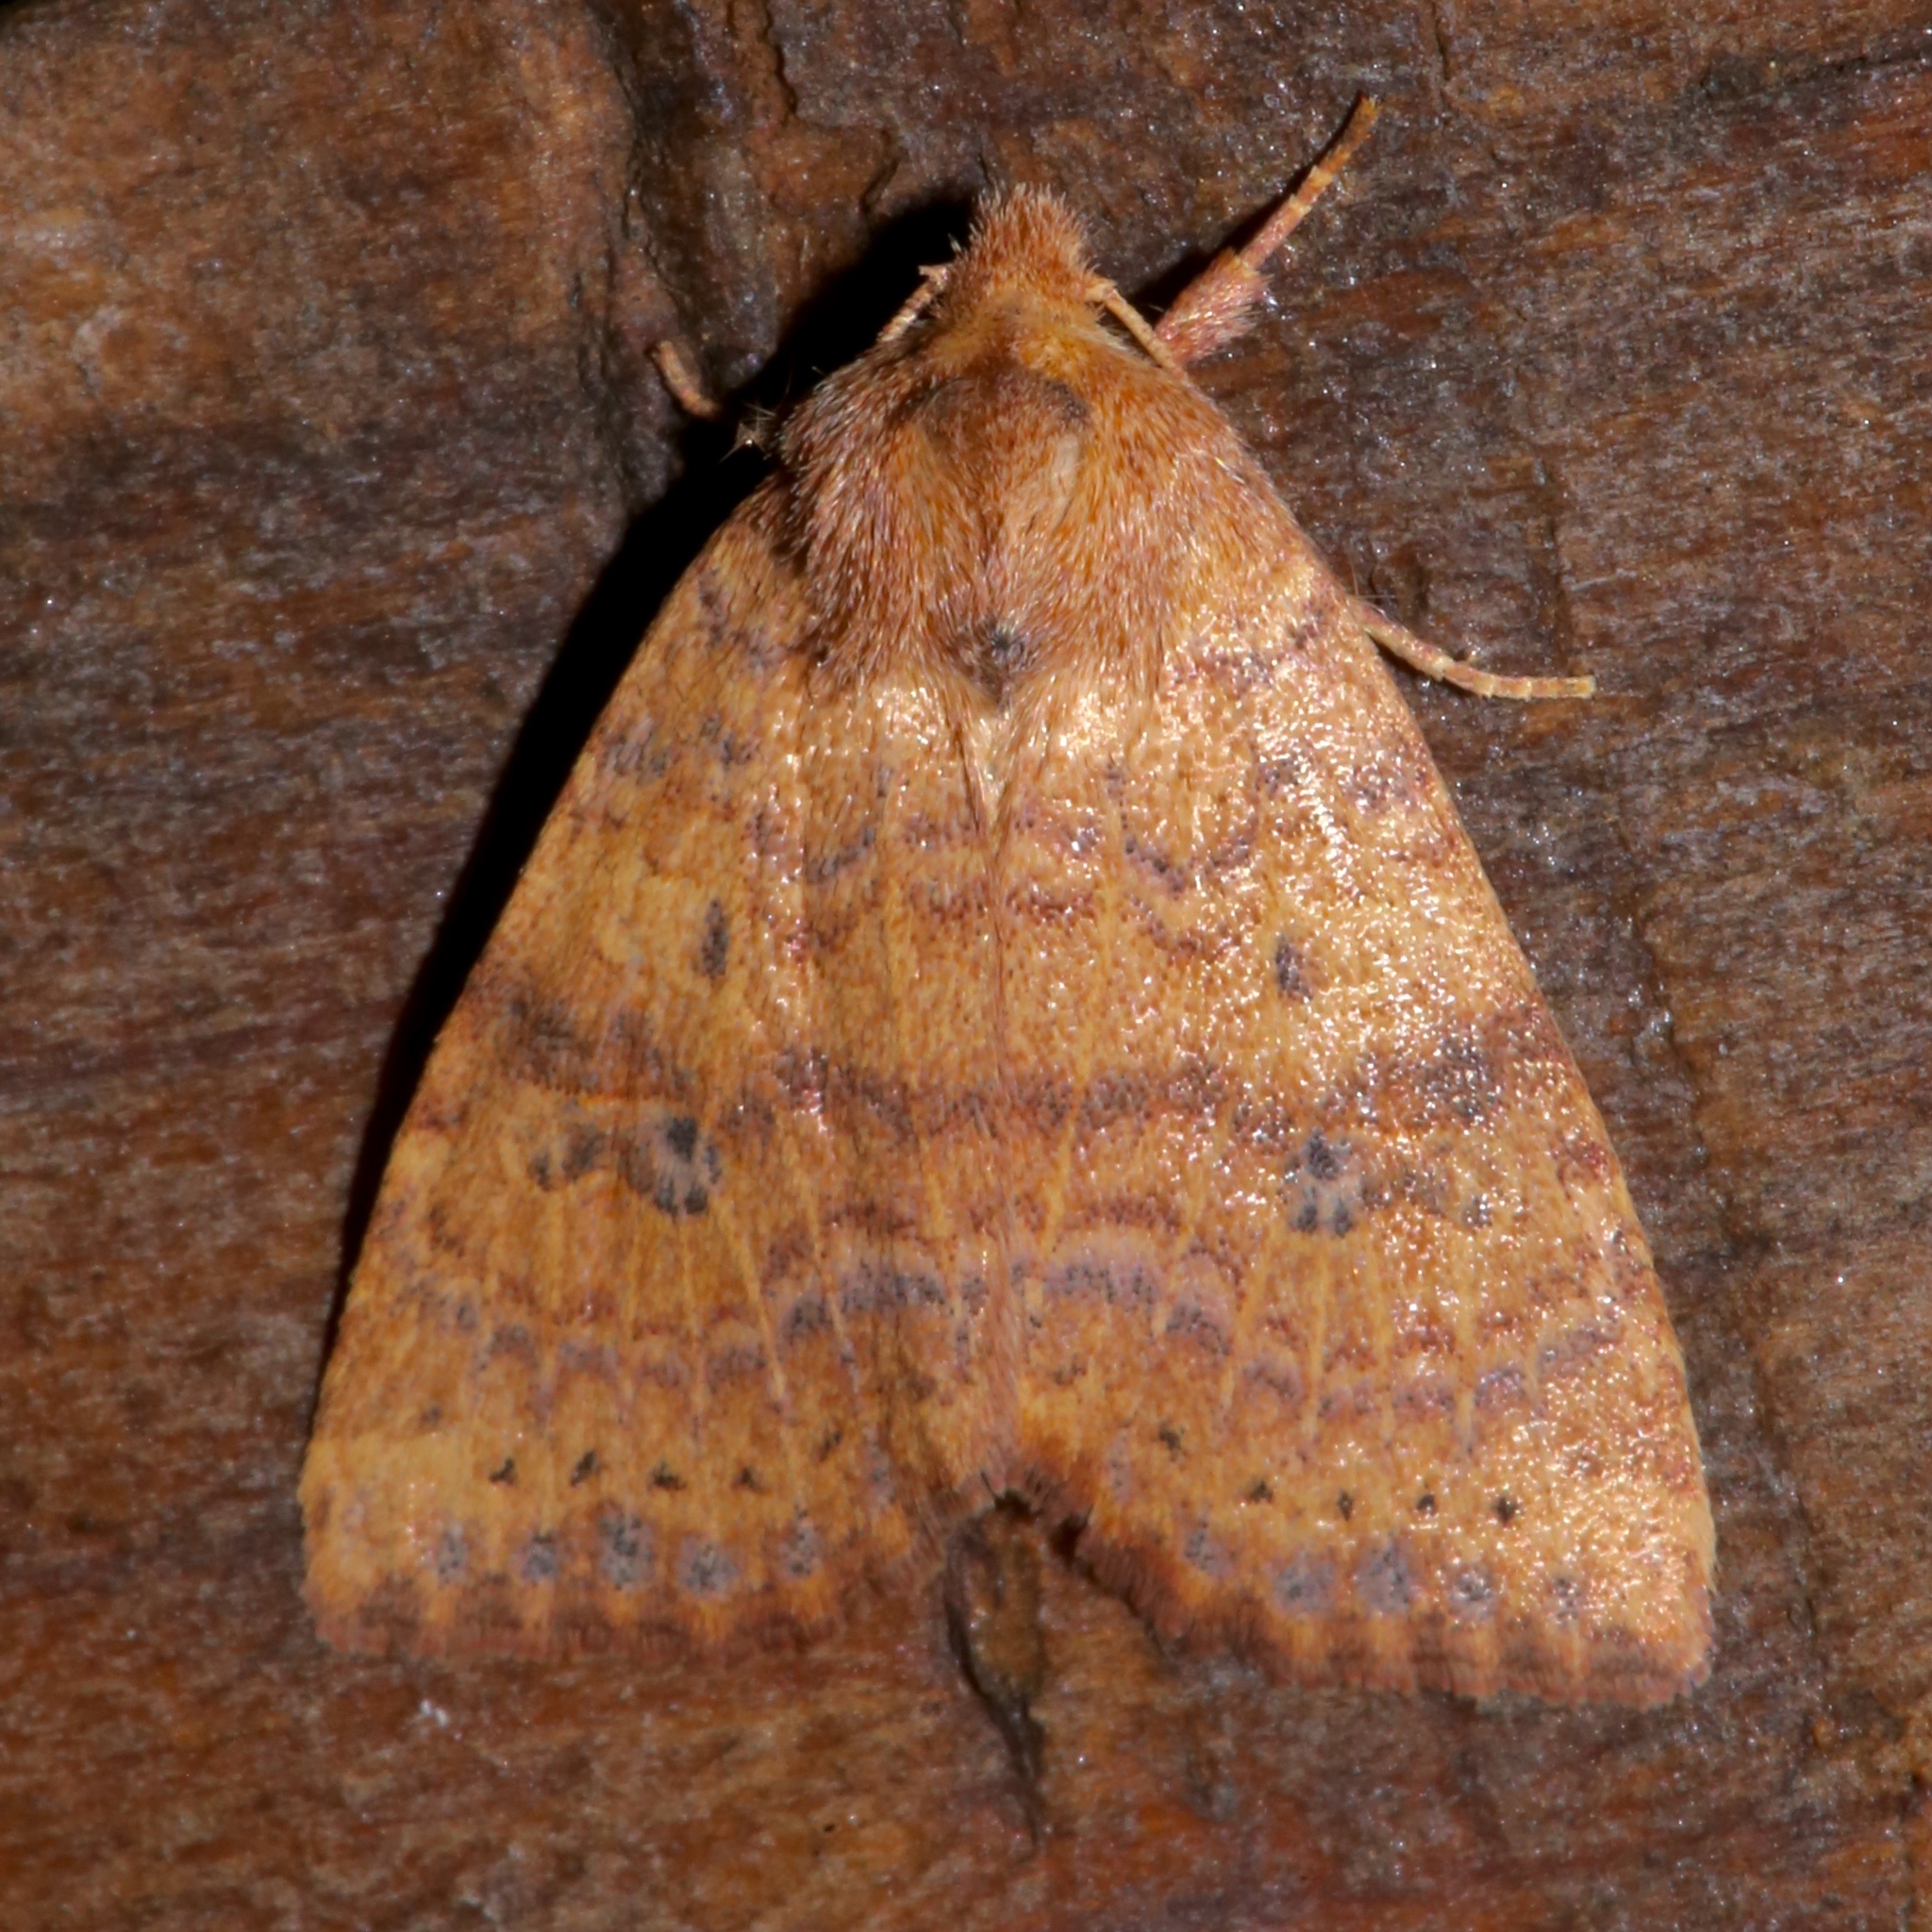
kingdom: Animalia
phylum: Arthropoda
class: Insecta
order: Lepidoptera
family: Noctuidae
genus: Anathix
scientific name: Anathix ralla
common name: Dotted sallow
